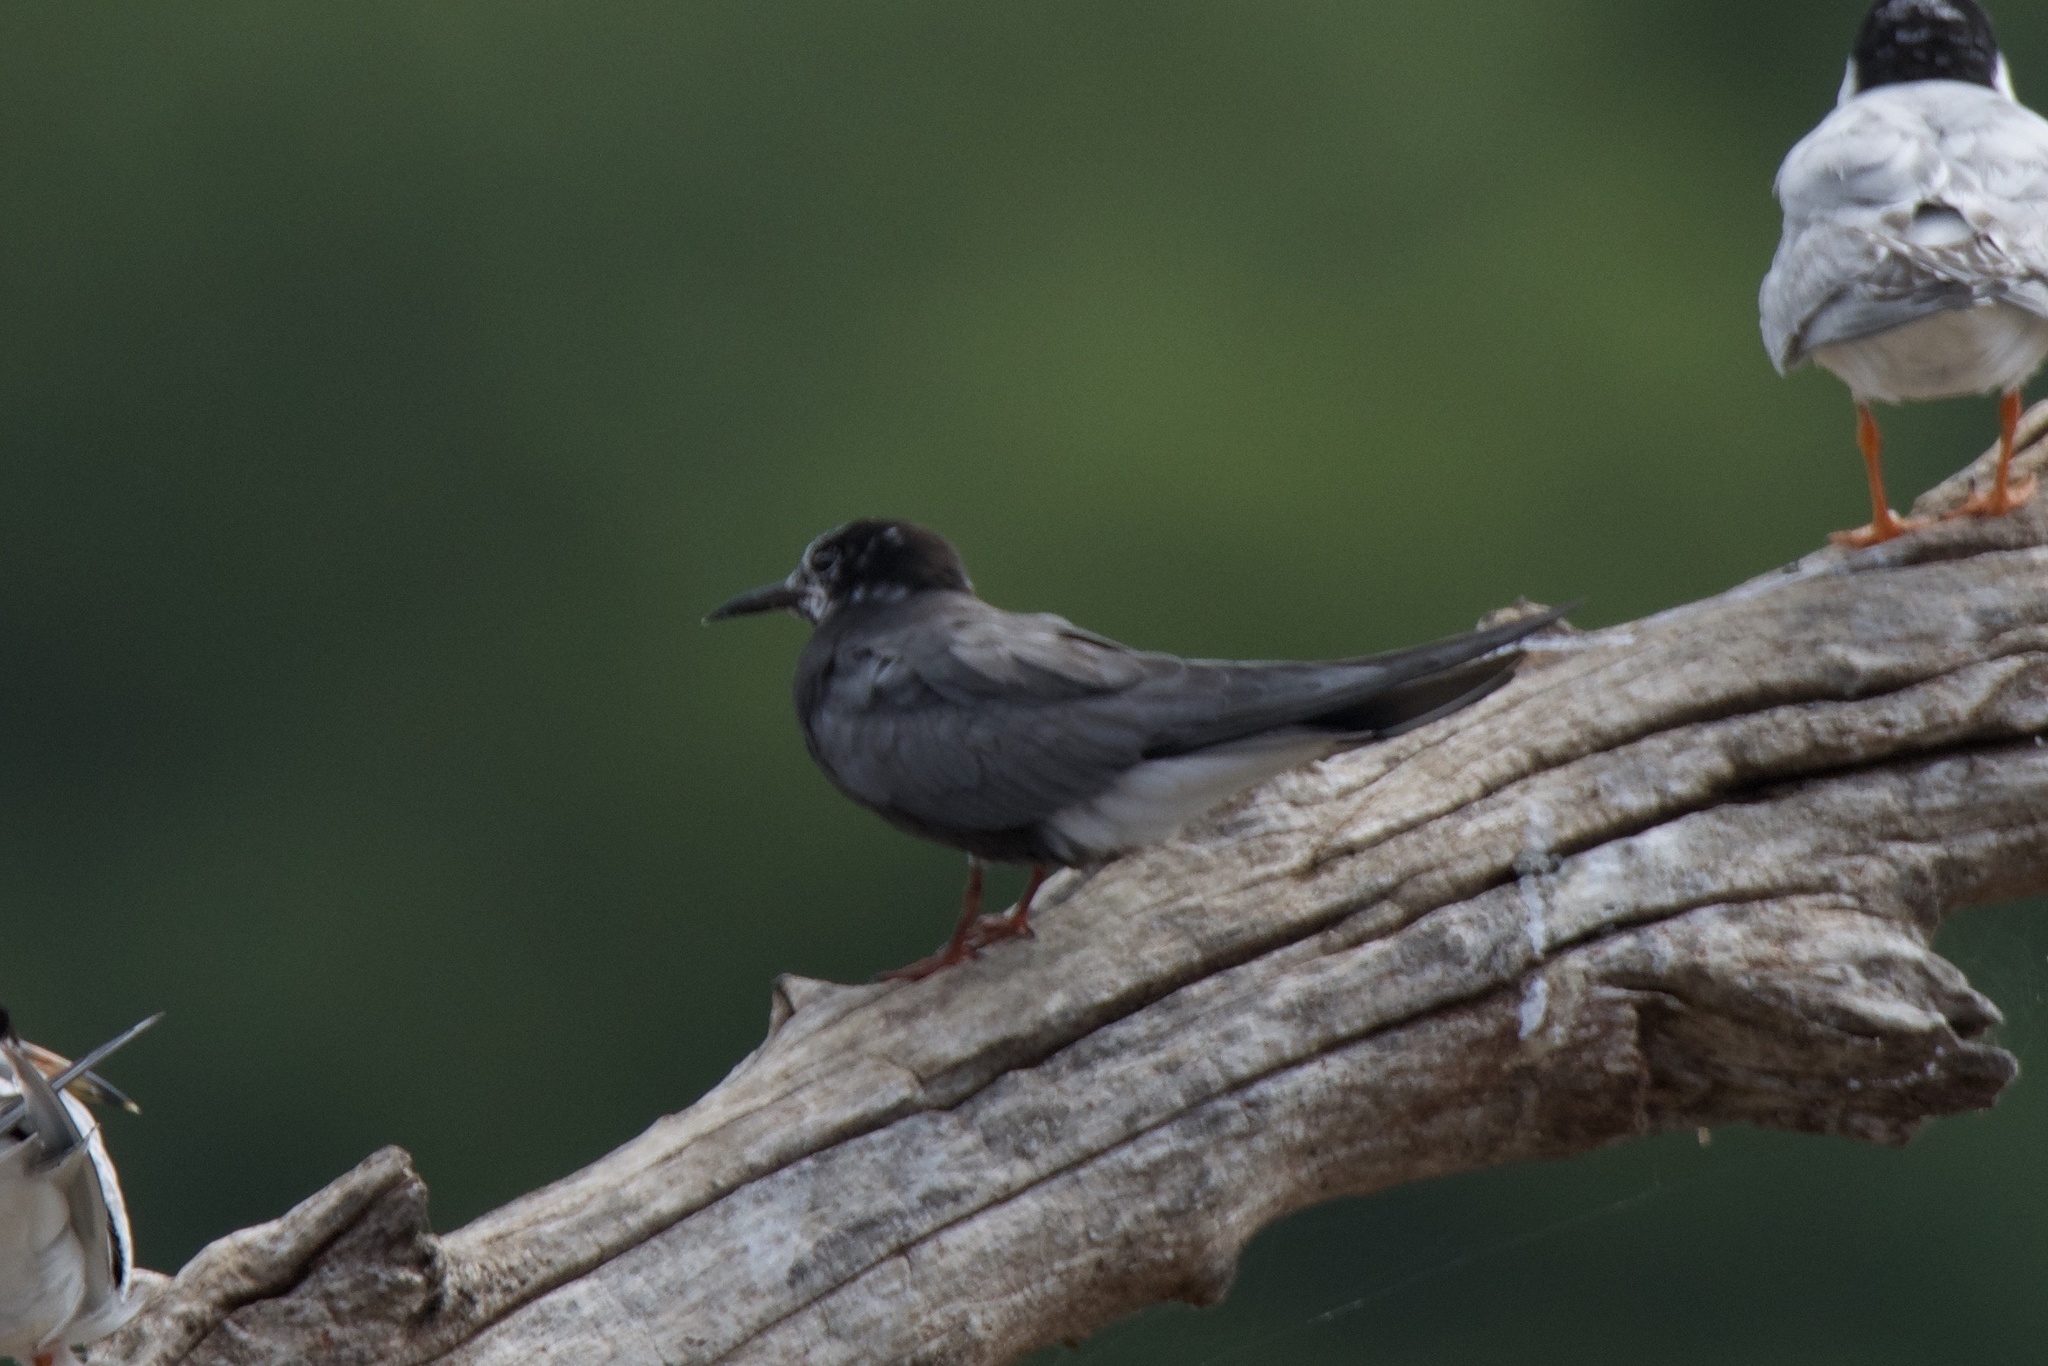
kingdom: Animalia
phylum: Chordata
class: Aves
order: Charadriiformes
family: Laridae
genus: Chlidonias
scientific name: Chlidonias niger
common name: Black tern
